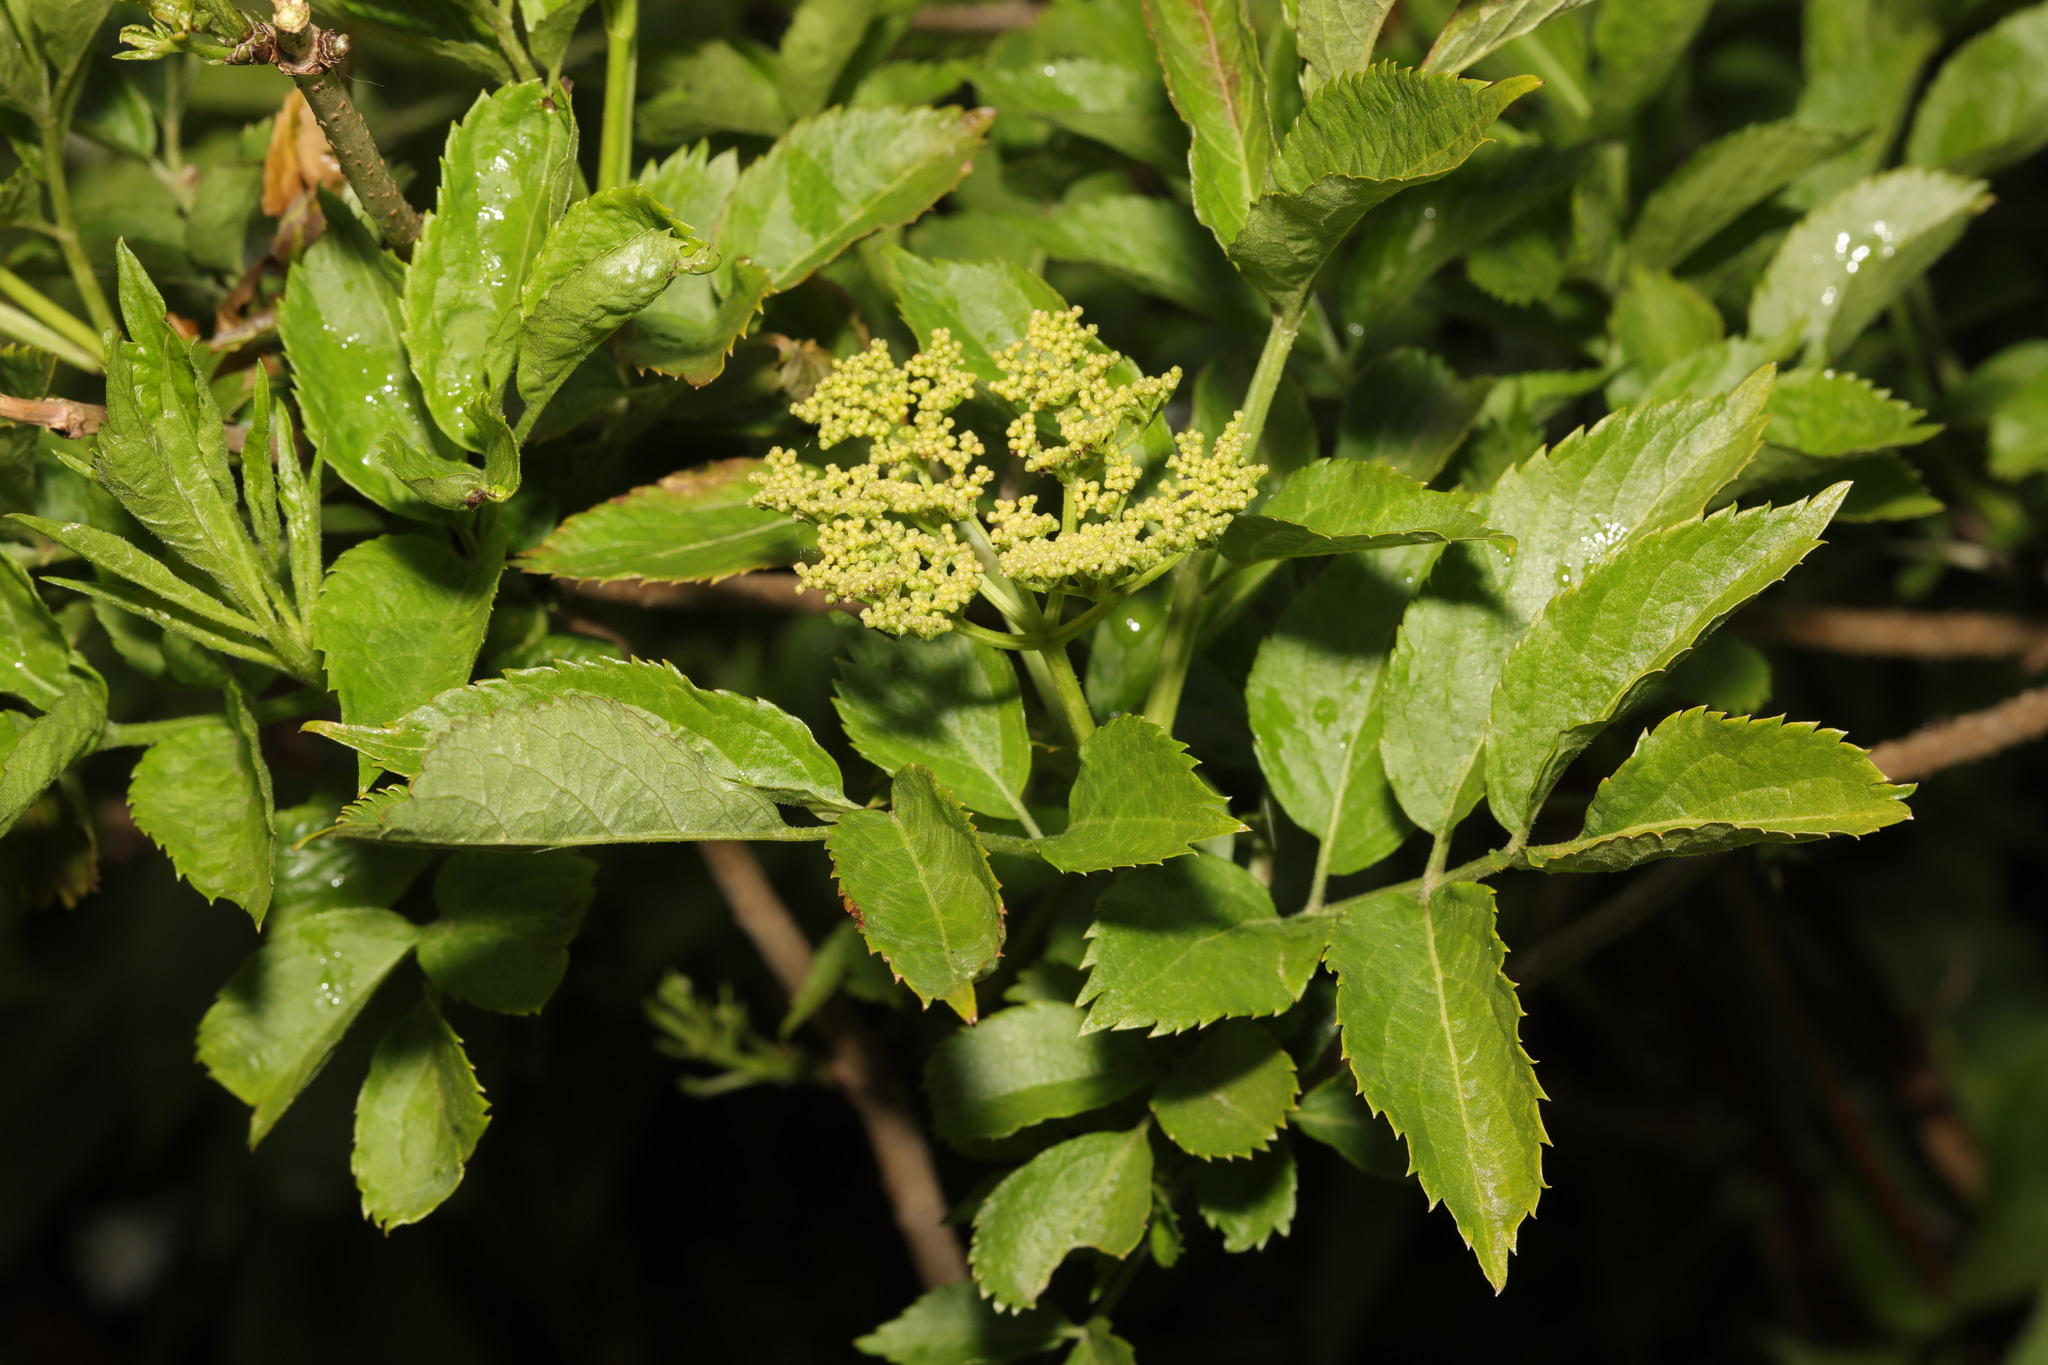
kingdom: Plantae
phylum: Tracheophyta
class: Magnoliopsida
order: Dipsacales
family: Viburnaceae
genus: Sambucus
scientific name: Sambucus nigra
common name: Elder
